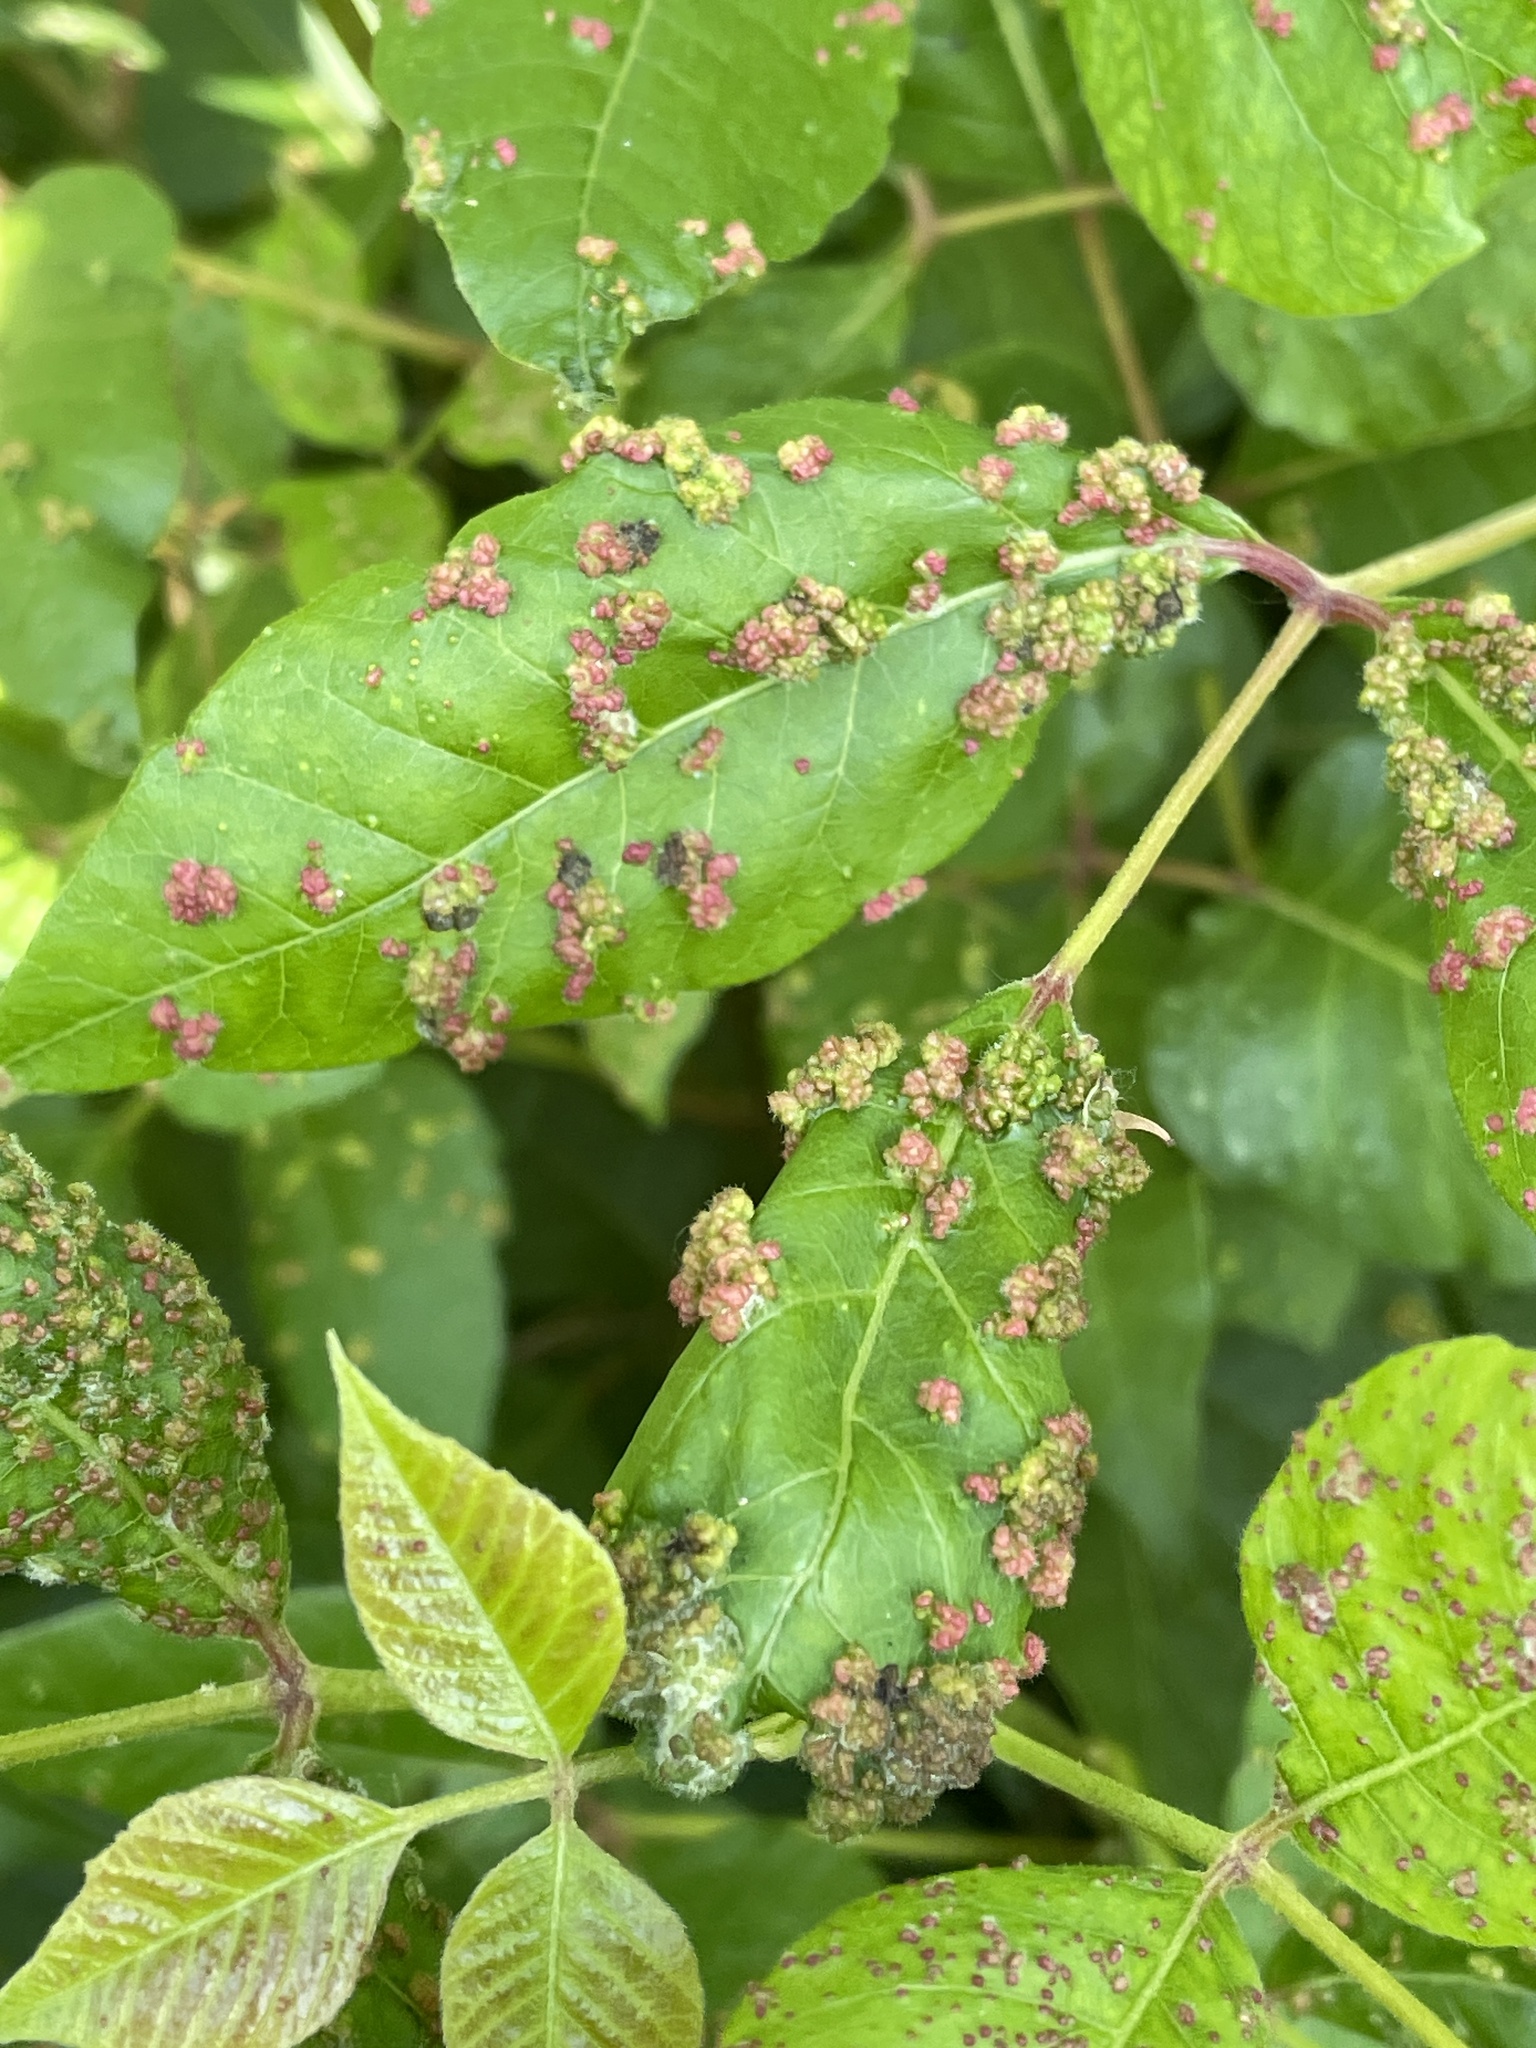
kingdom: Animalia
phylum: Arthropoda
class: Arachnida
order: Trombidiformes
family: Eriophyidae
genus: Aculops
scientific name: Aculops
